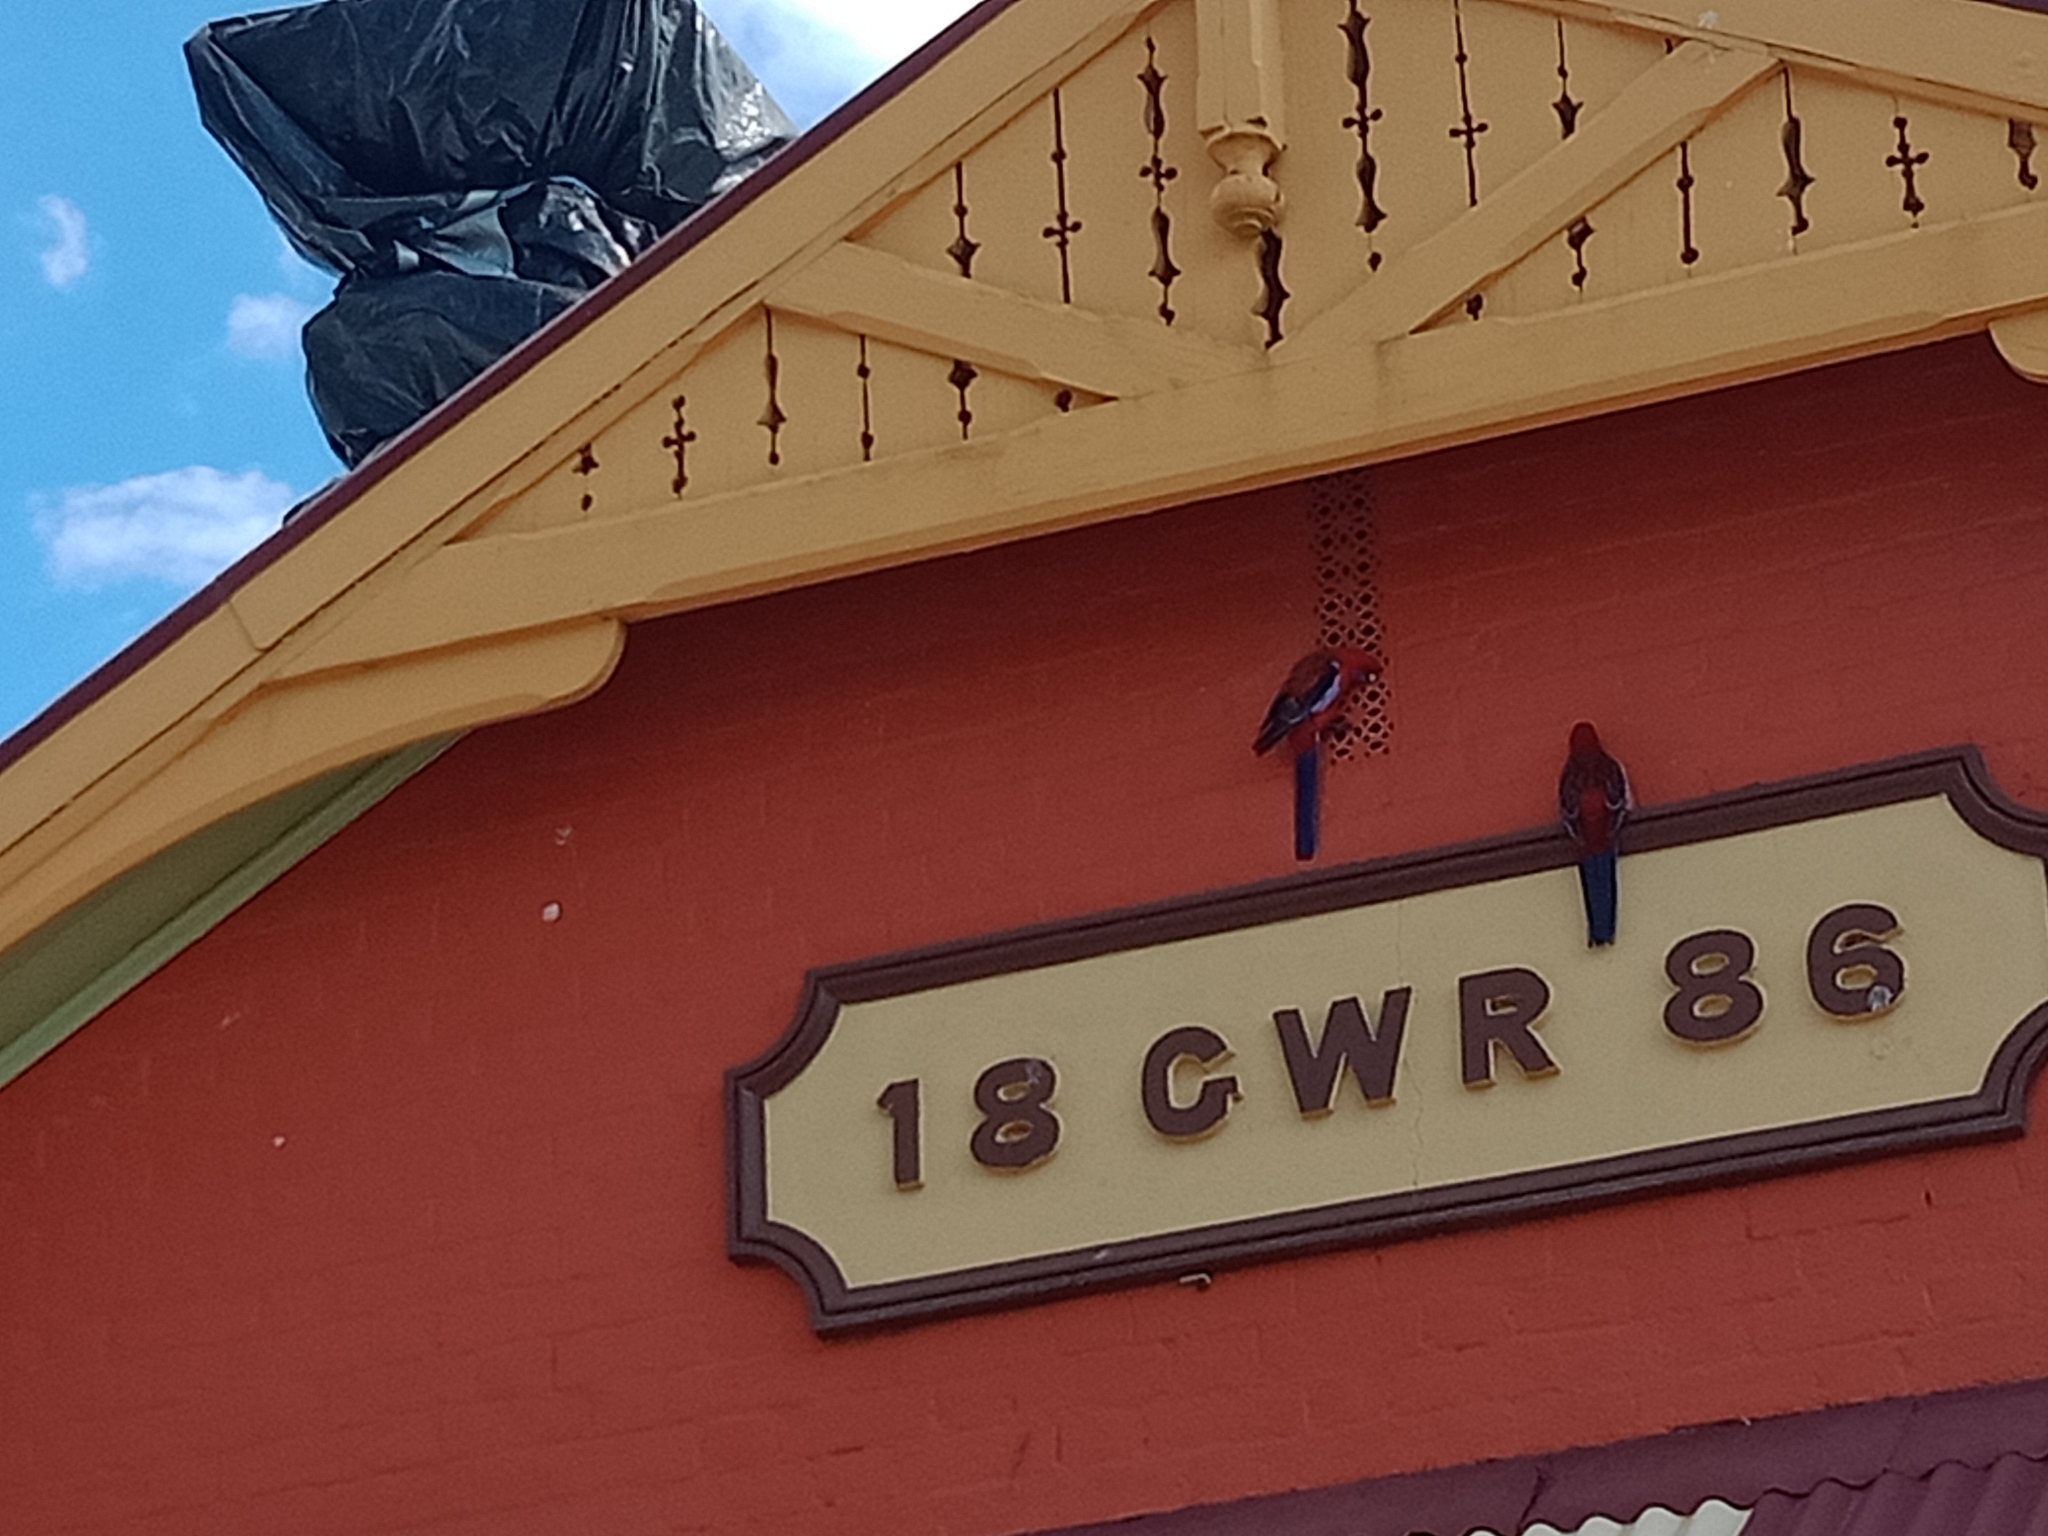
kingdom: Animalia
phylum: Chordata
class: Aves
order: Psittaciformes
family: Psittacidae
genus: Platycercus
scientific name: Platycercus elegans
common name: Crimson rosella
